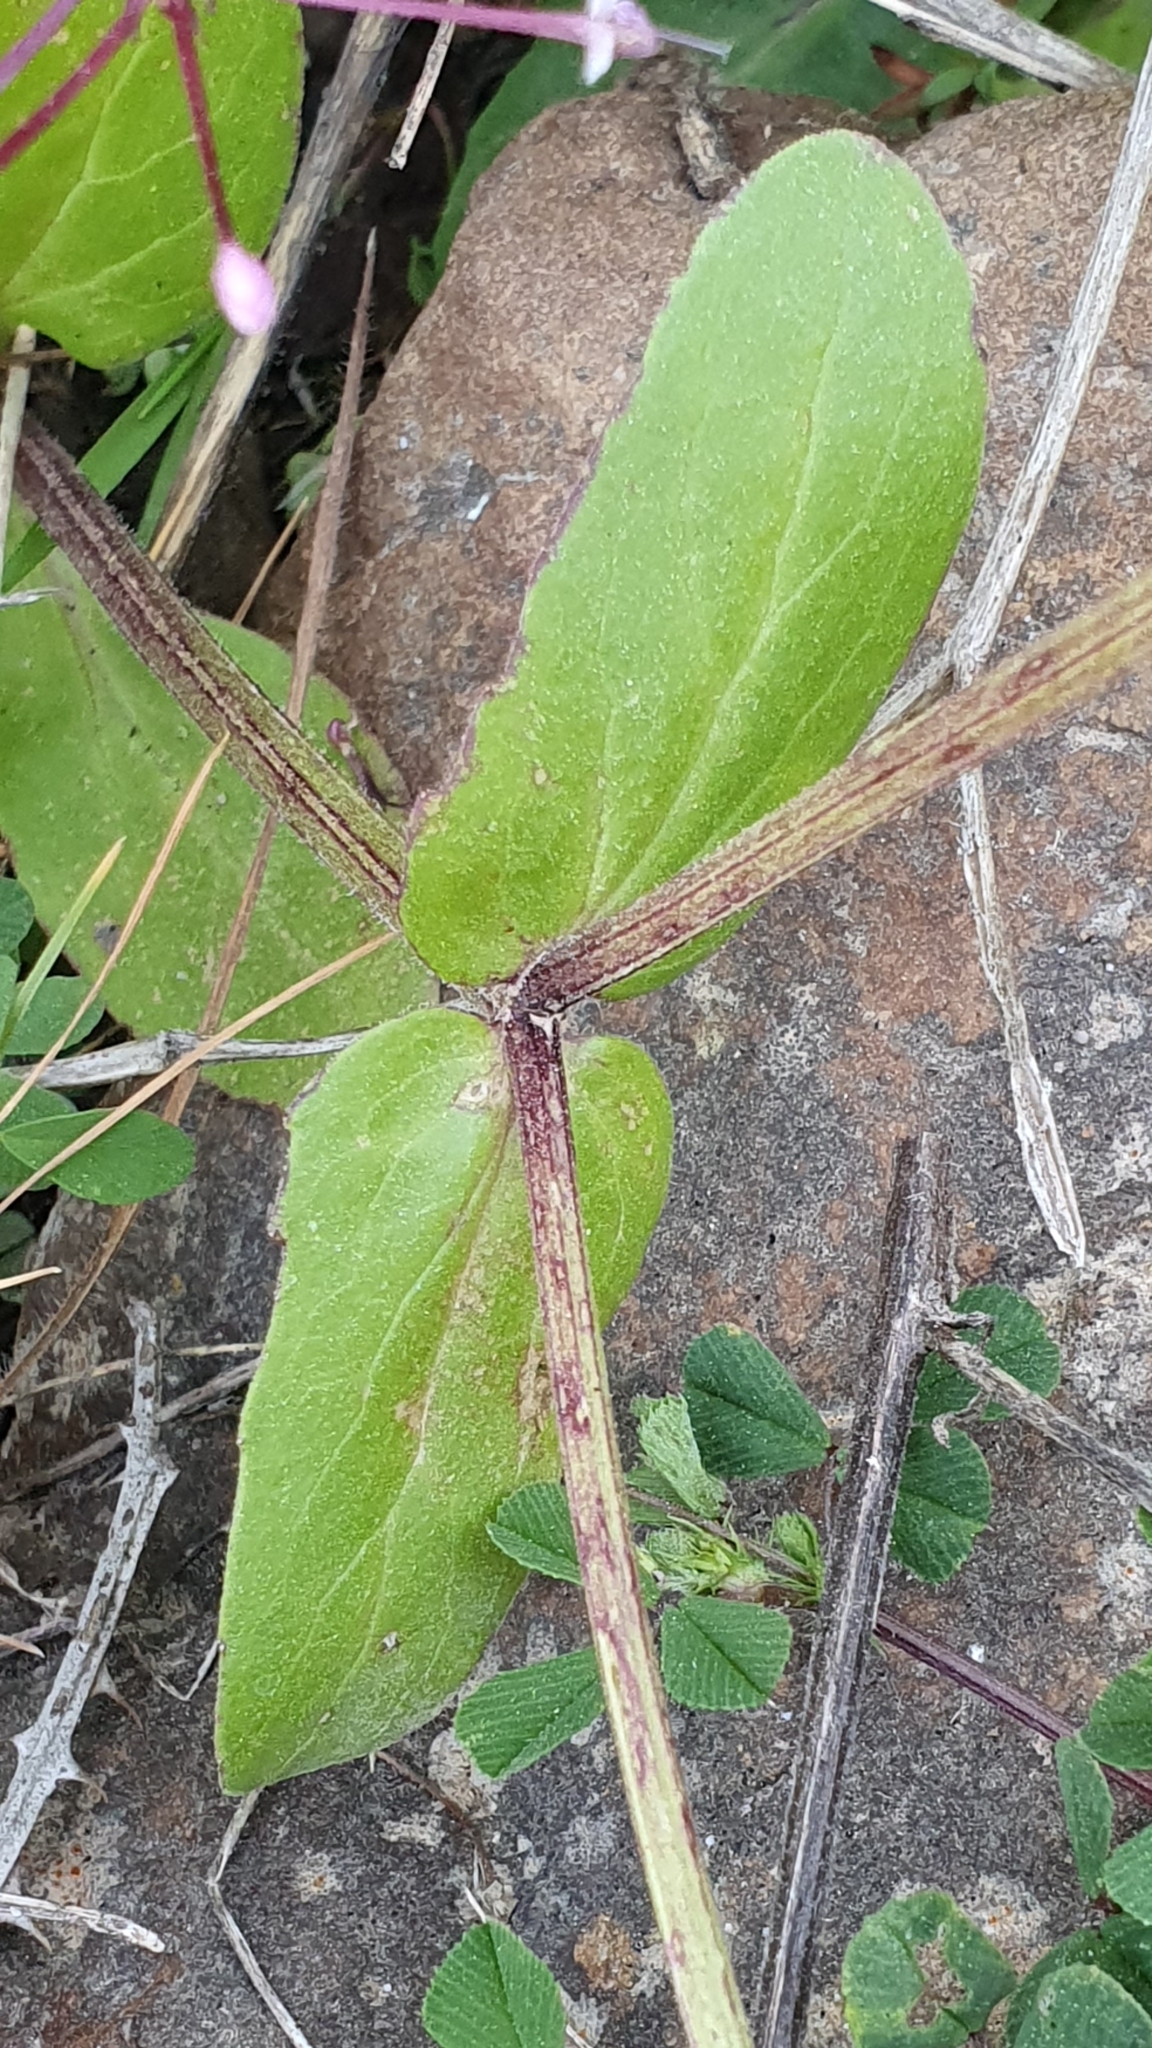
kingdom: Plantae
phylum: Tracheophyta
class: Magnoliopsida
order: Dipsacales
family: Caprifoliaceae
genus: Fedia
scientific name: Fedia graciliflora
